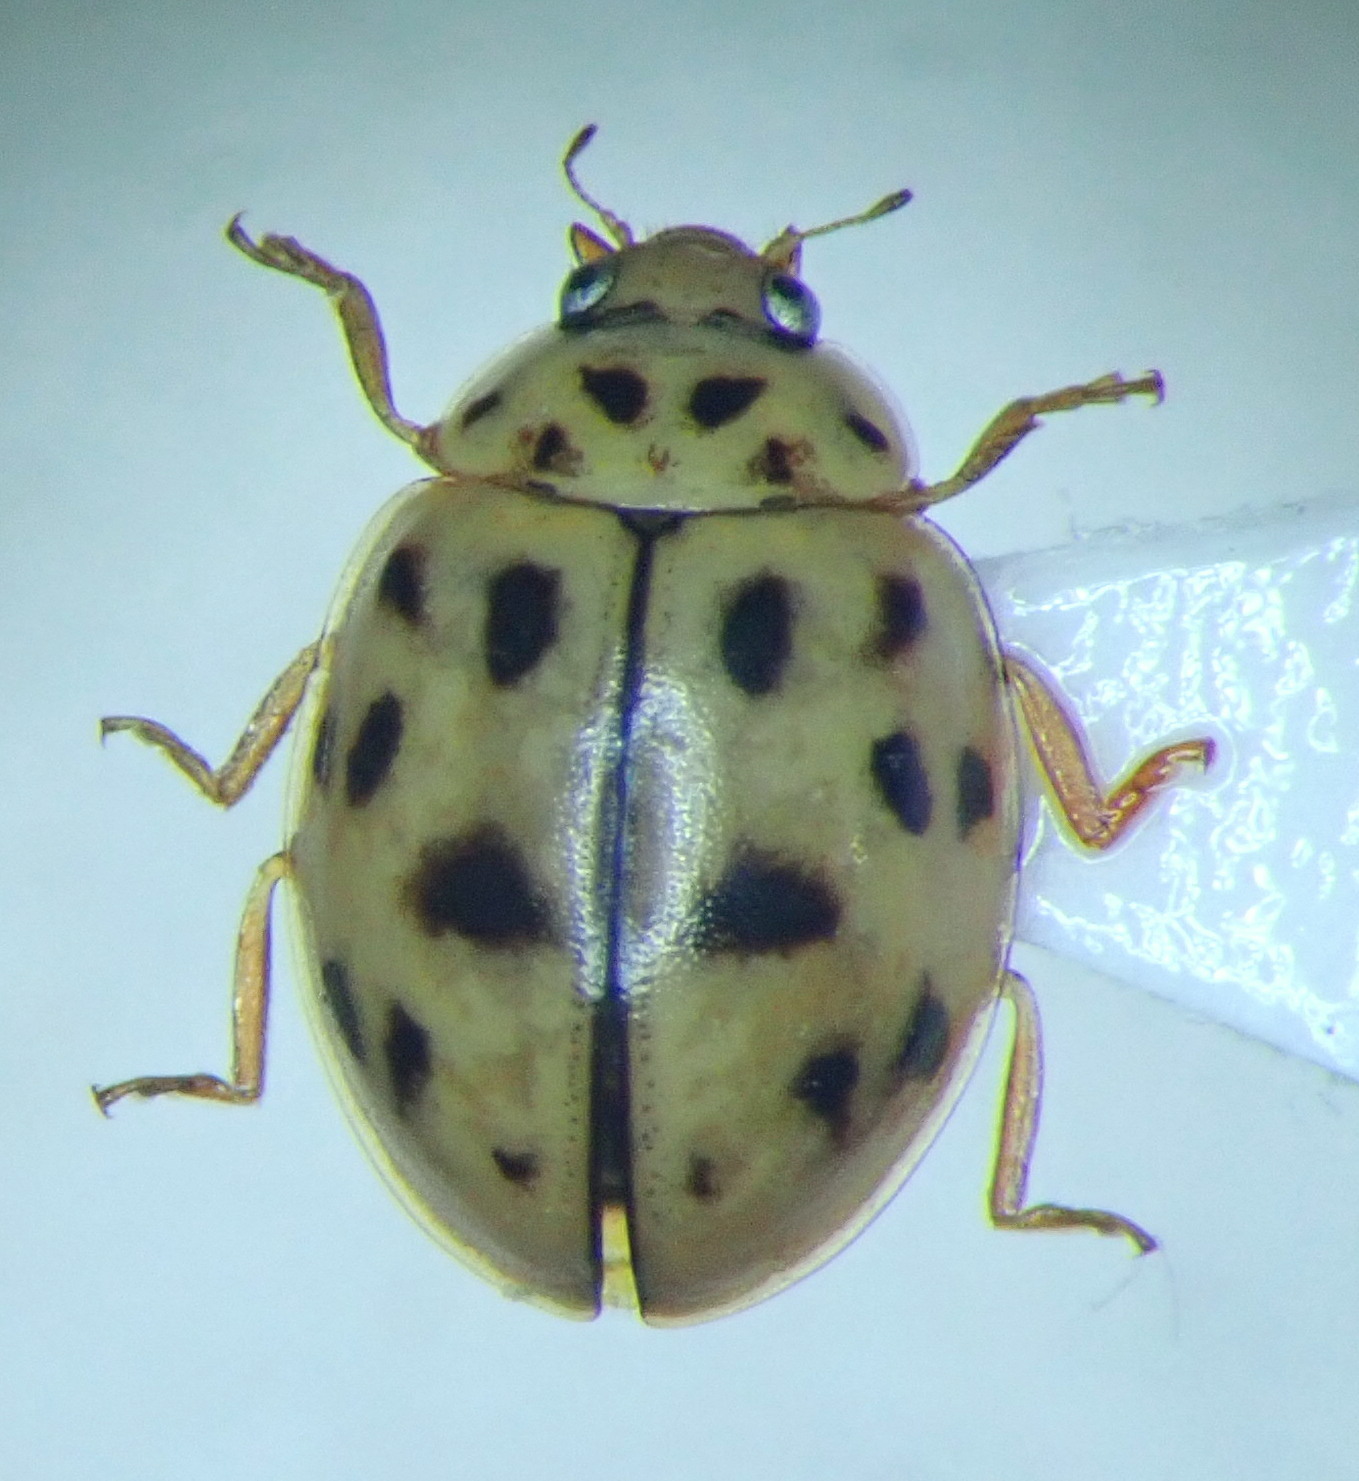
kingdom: Animalia
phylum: Arthropoda
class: Insecta
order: Coleoptera
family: Coccinellidae
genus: Oenopia
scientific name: Oenopia conglobata
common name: Ladybird beetle
